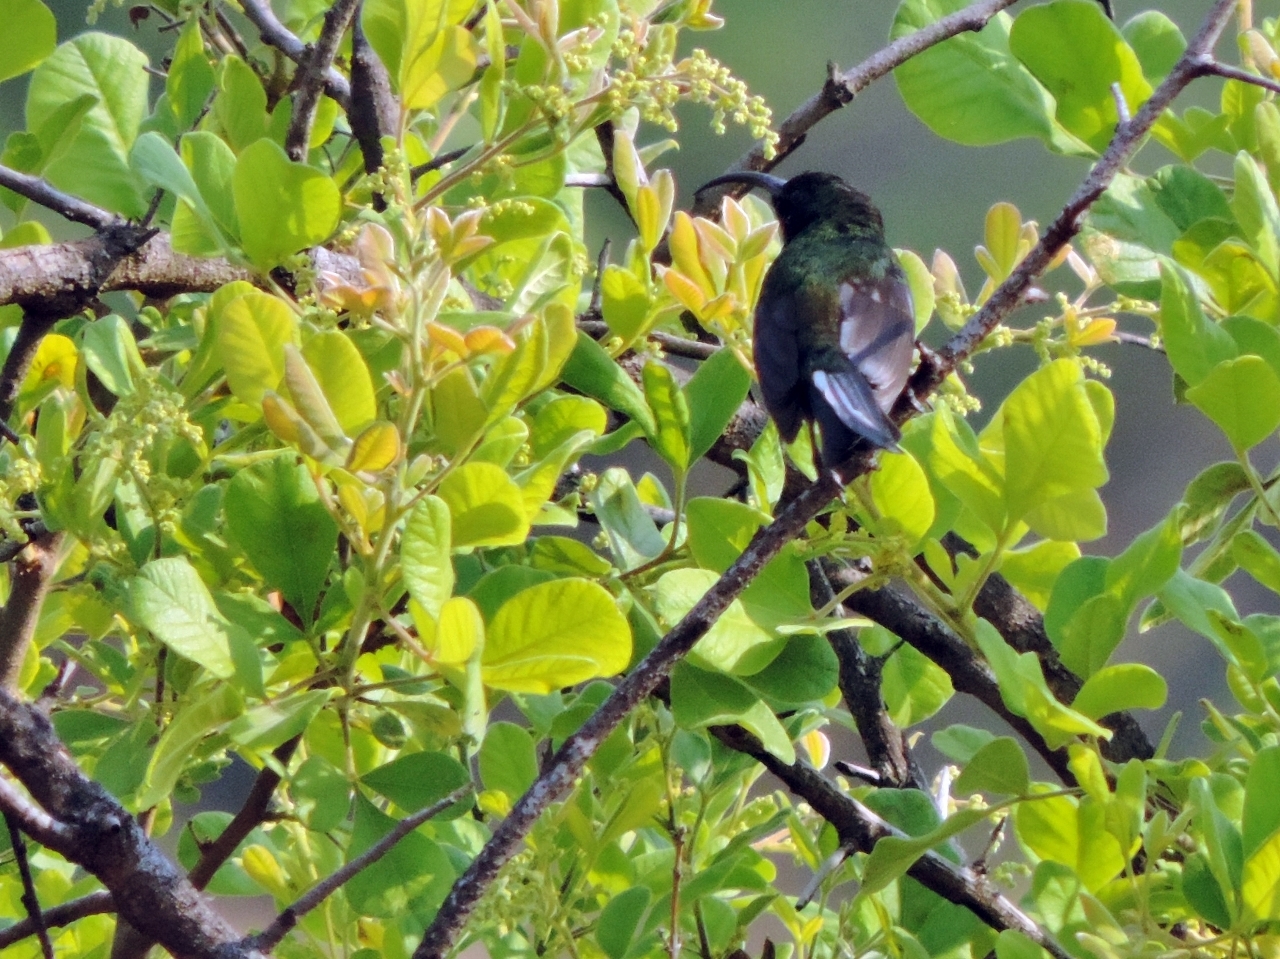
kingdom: Animalia
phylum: Chordata
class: Aves
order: Passeriformes
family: Nectariniidae
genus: Nectarinia
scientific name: Nectarinia kilimensis
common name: Bronzy sunbird
